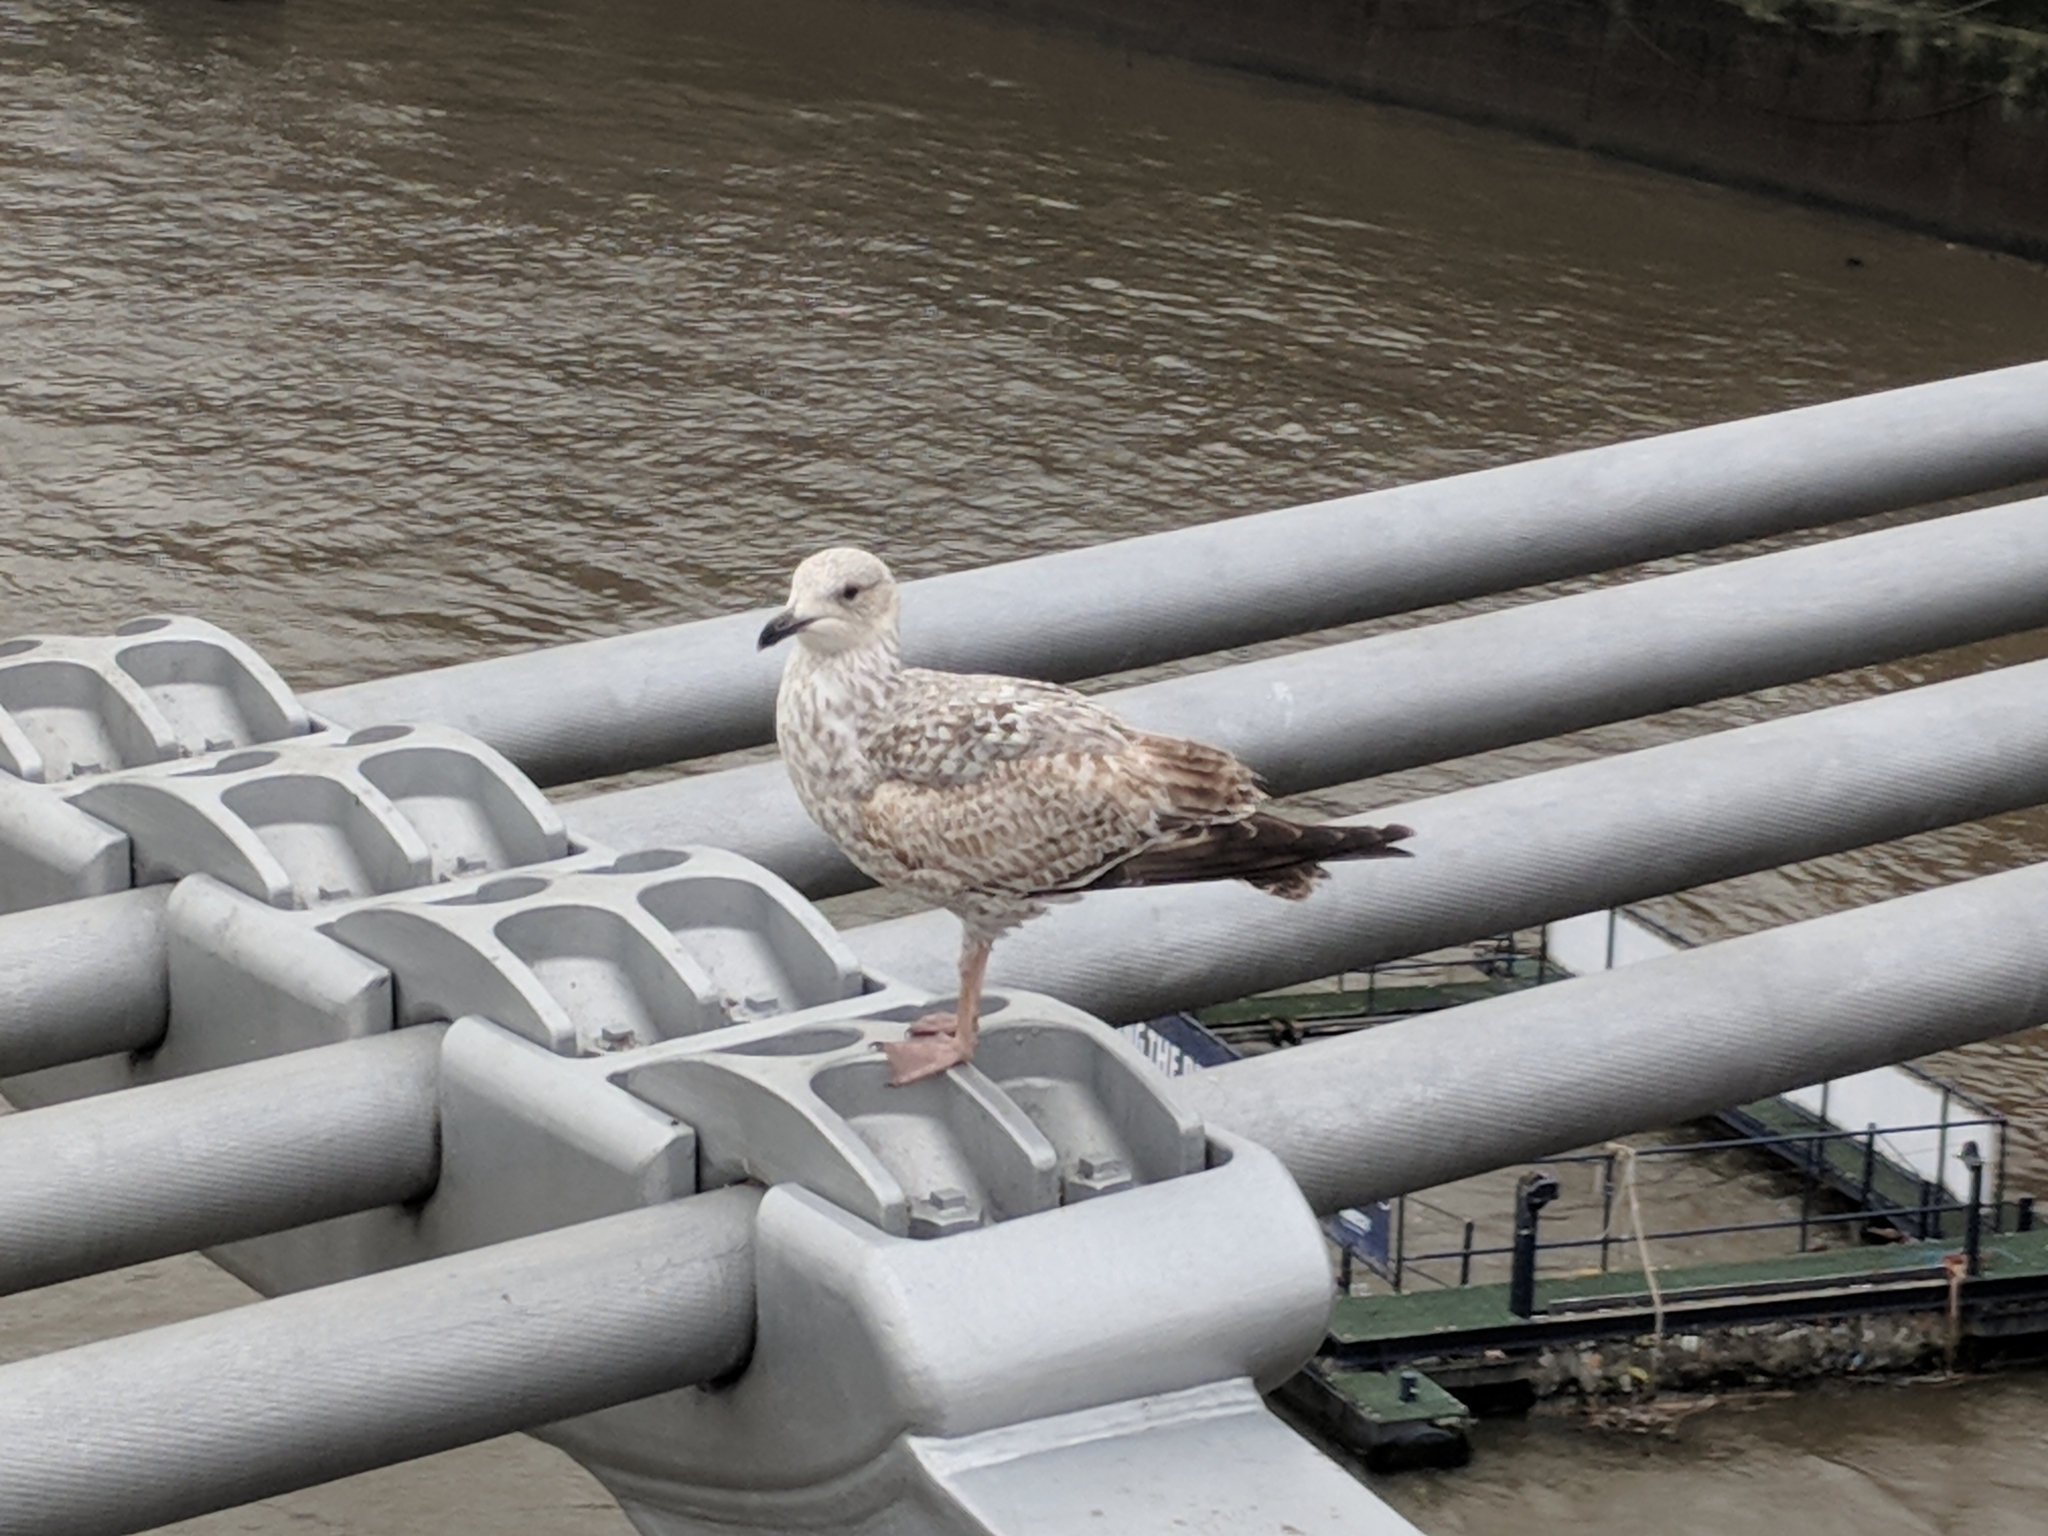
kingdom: Animalia
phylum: Chordata
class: Aves
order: Charadriiformes
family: Laridae
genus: Larus
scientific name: Larus argentatus
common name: Herring gull
